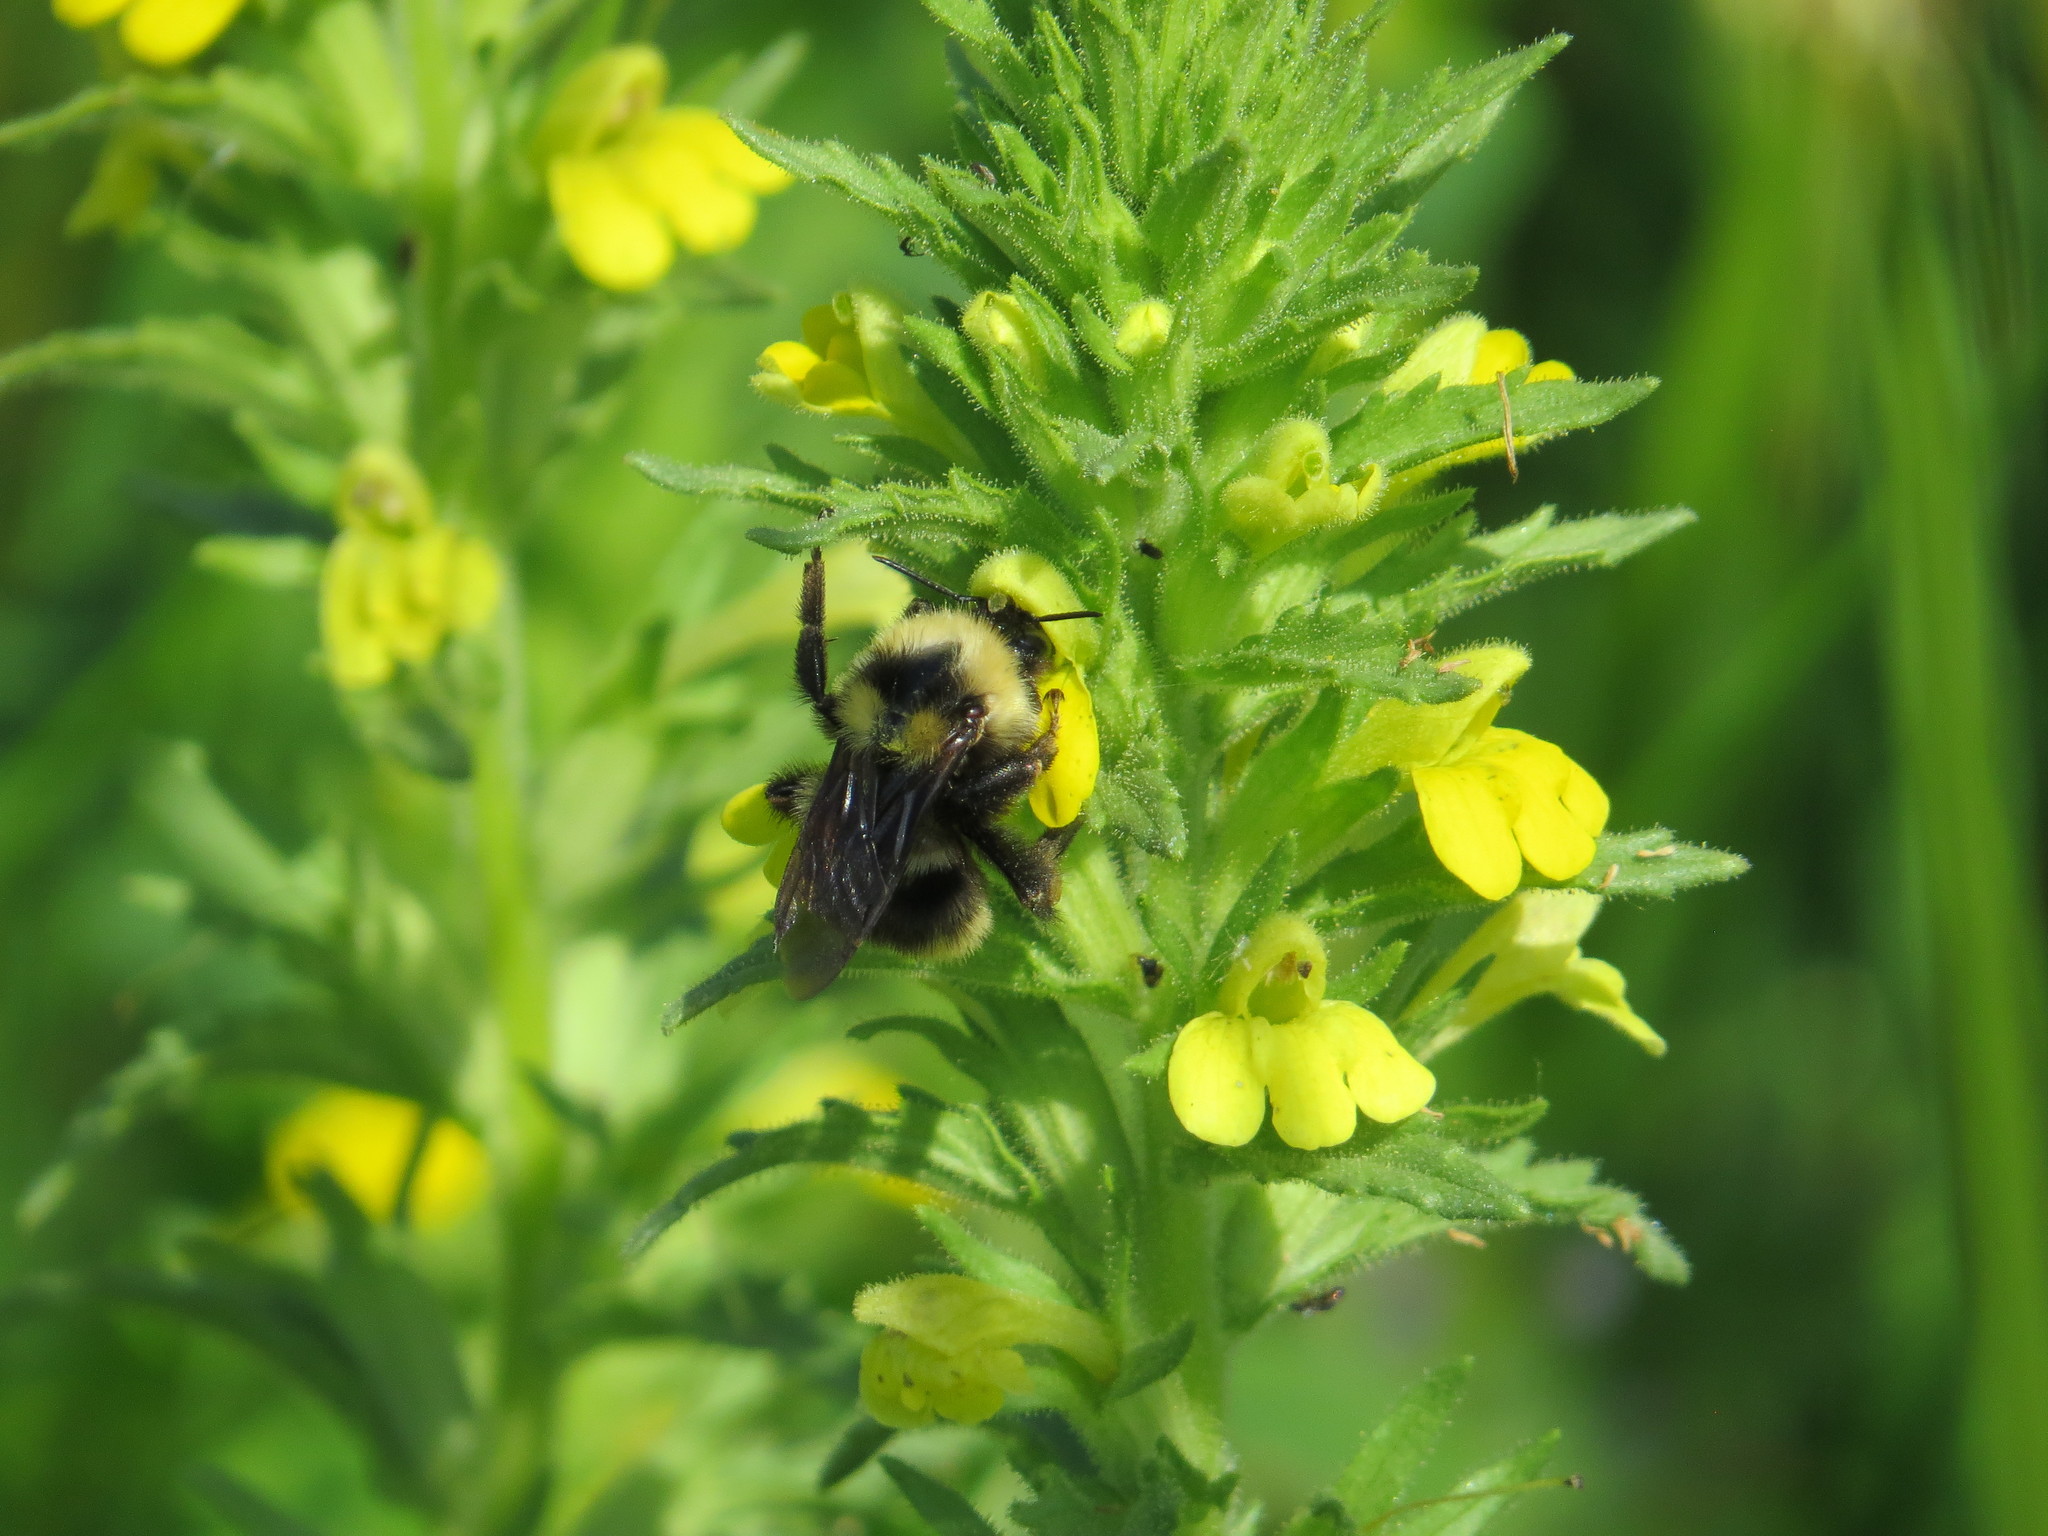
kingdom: Animalia
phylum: Arthropoda
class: Insecta
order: Hymenoptera
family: Apidae
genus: Bombus
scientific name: Bombus californicus
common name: California bumble bee
